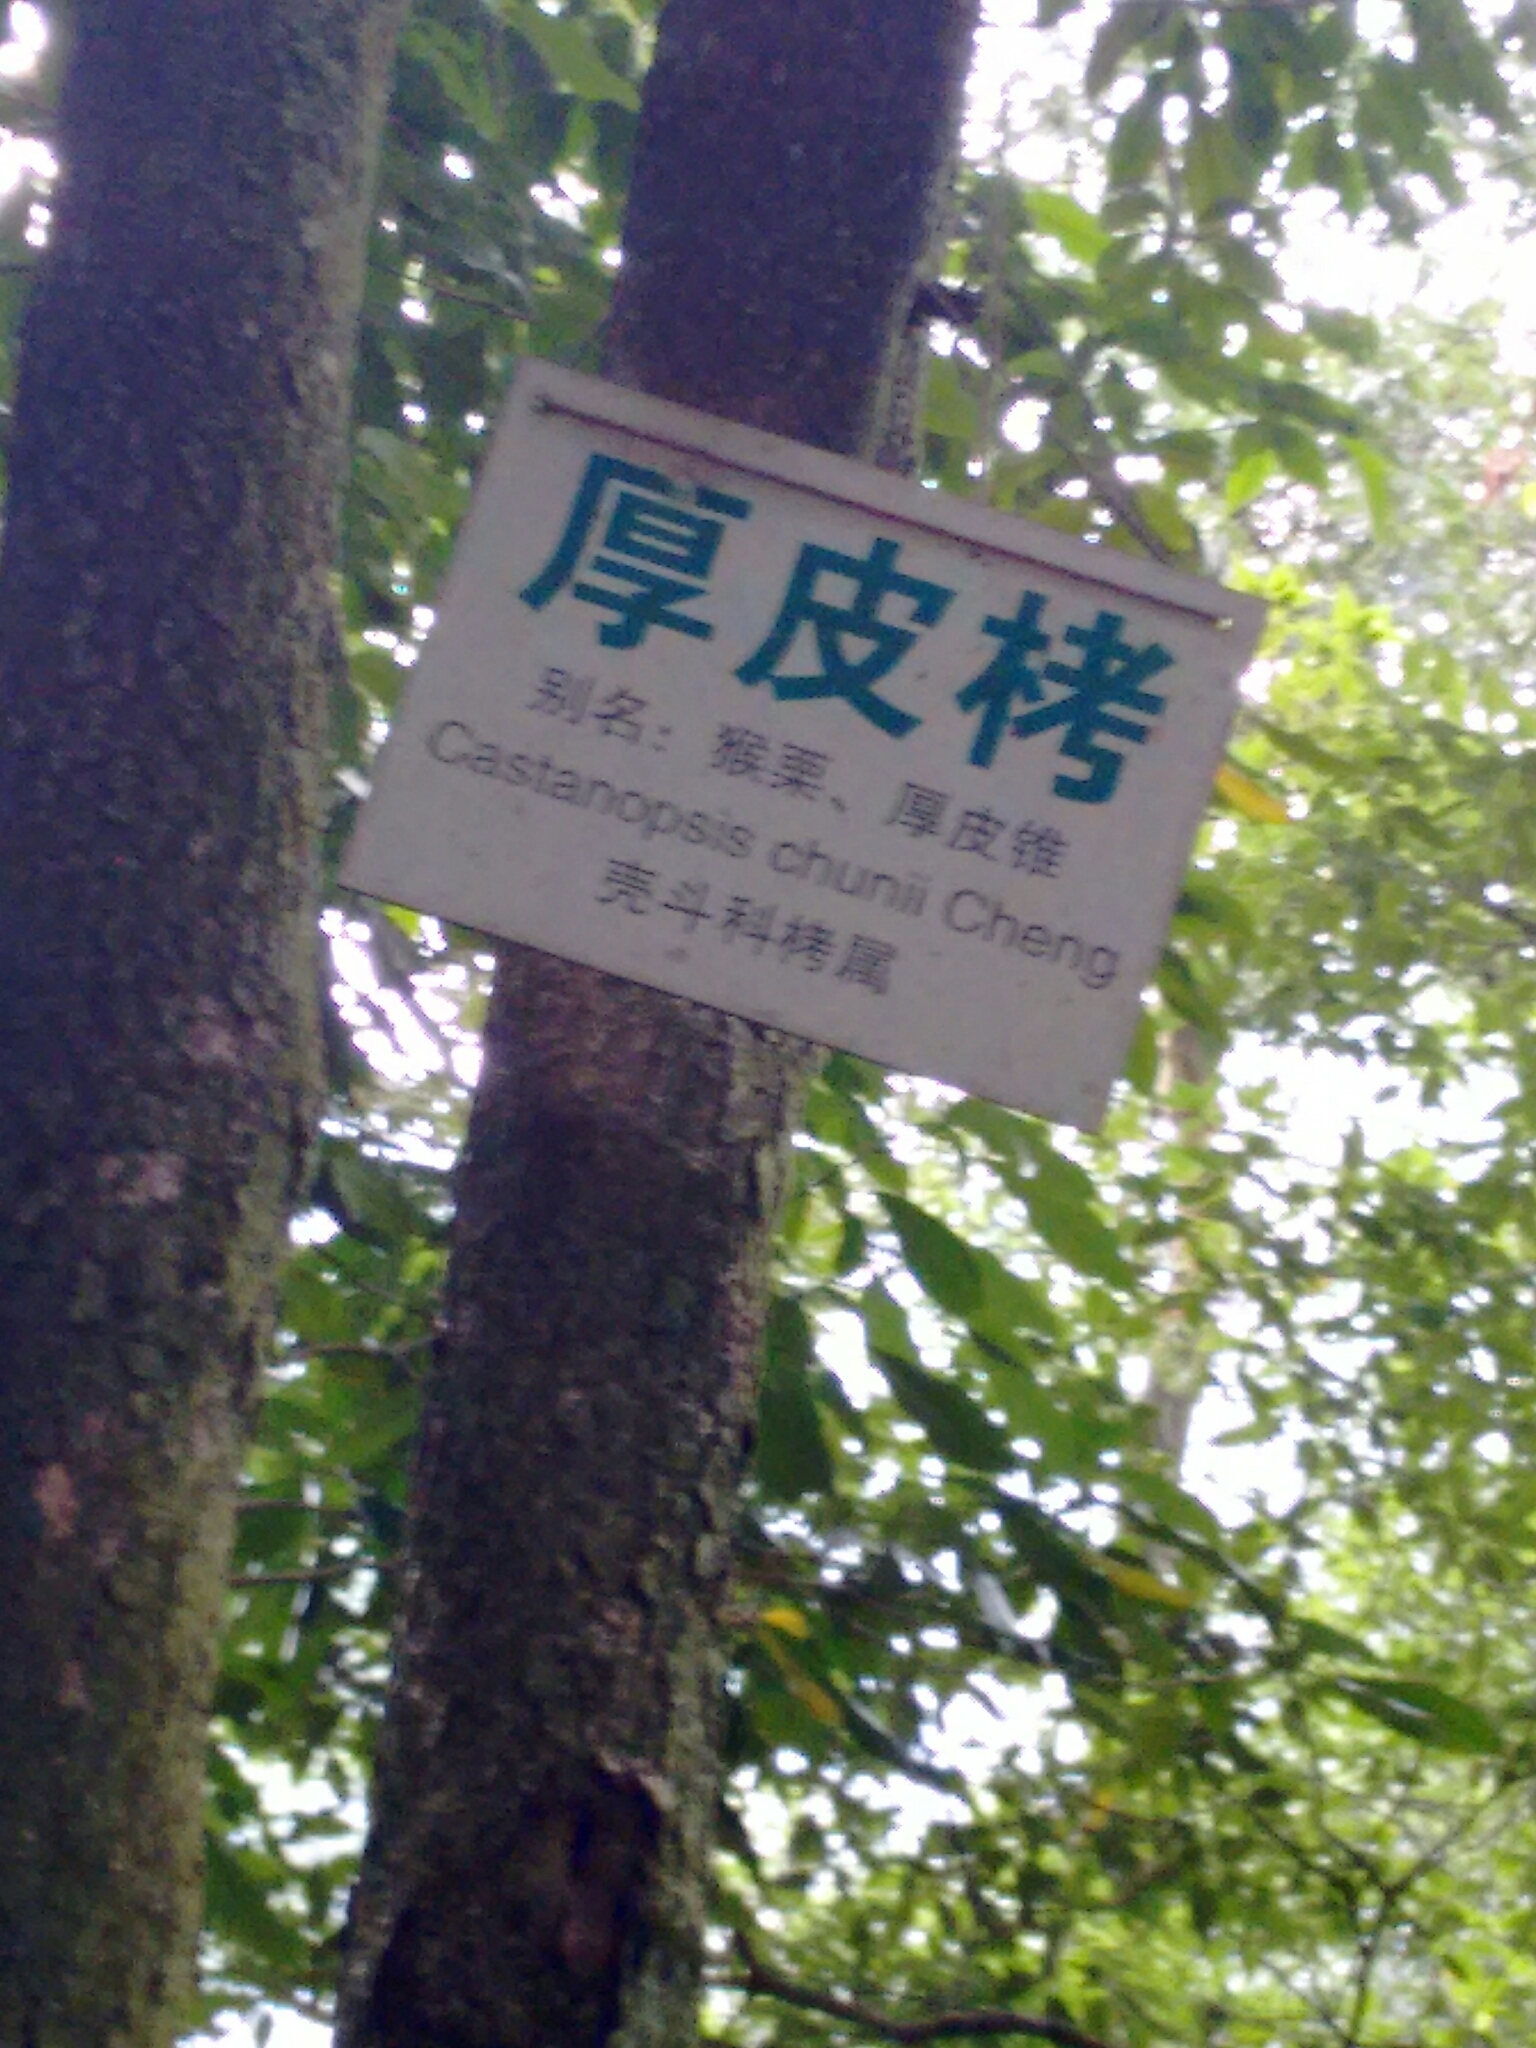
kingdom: Plantae
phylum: Tracheophyta
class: Magnoliopsida
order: Fagales
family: Fagaceae
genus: Castanopsis
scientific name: Castanopsis chunii
